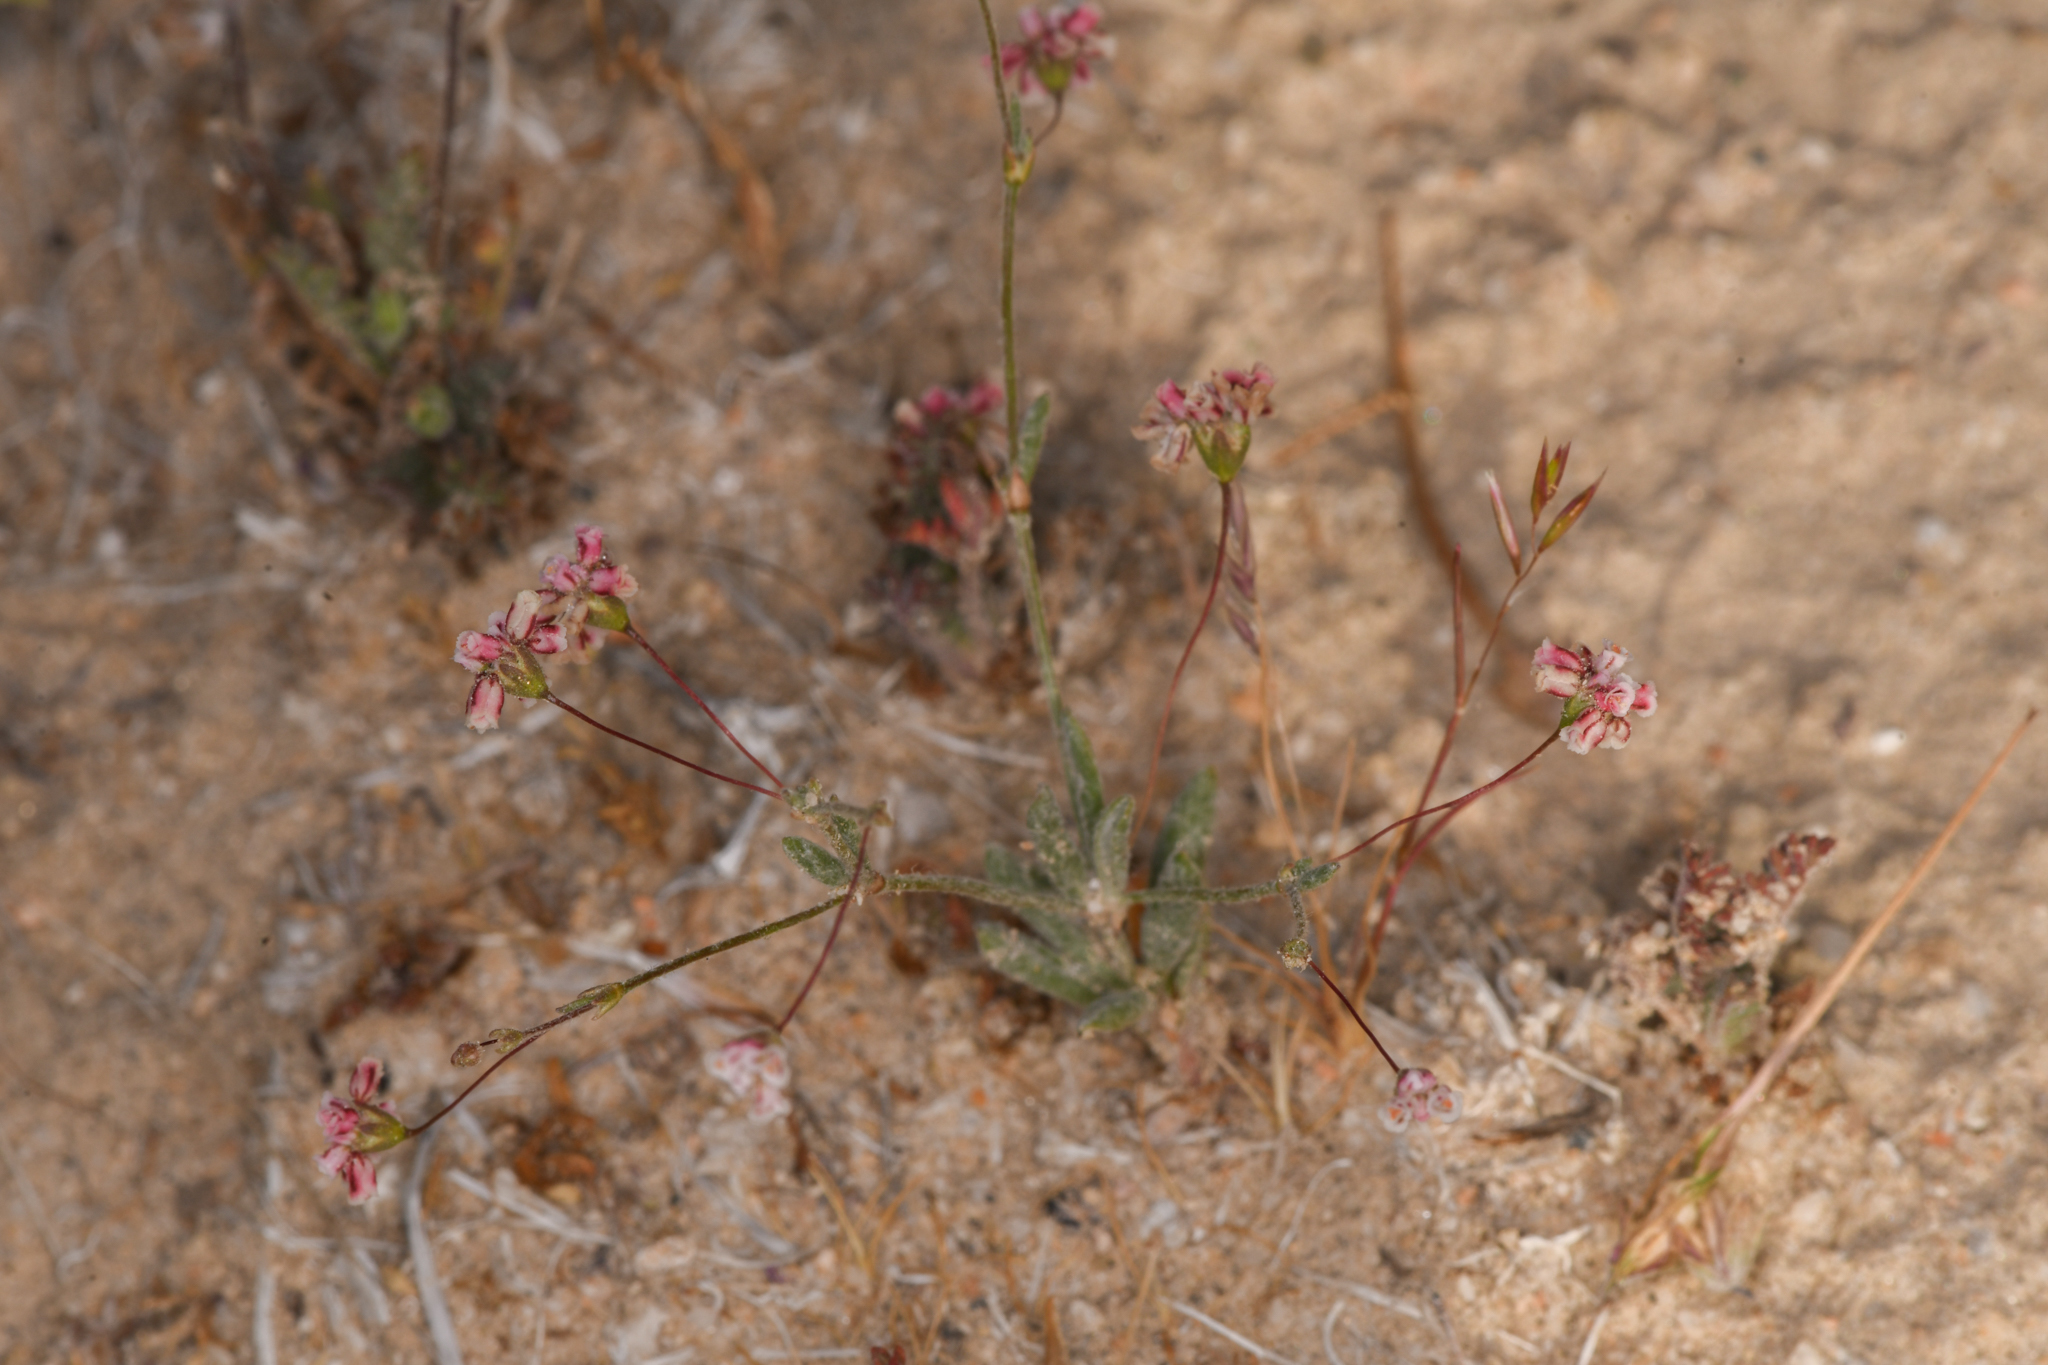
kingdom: Plantae
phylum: Tracheophyta
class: Magnoliopsida
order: Caryophyllales
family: Polygonaceae
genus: Eriogonum
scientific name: Eriogonum gracillimum
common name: Rose-and-white wild buckwheat
